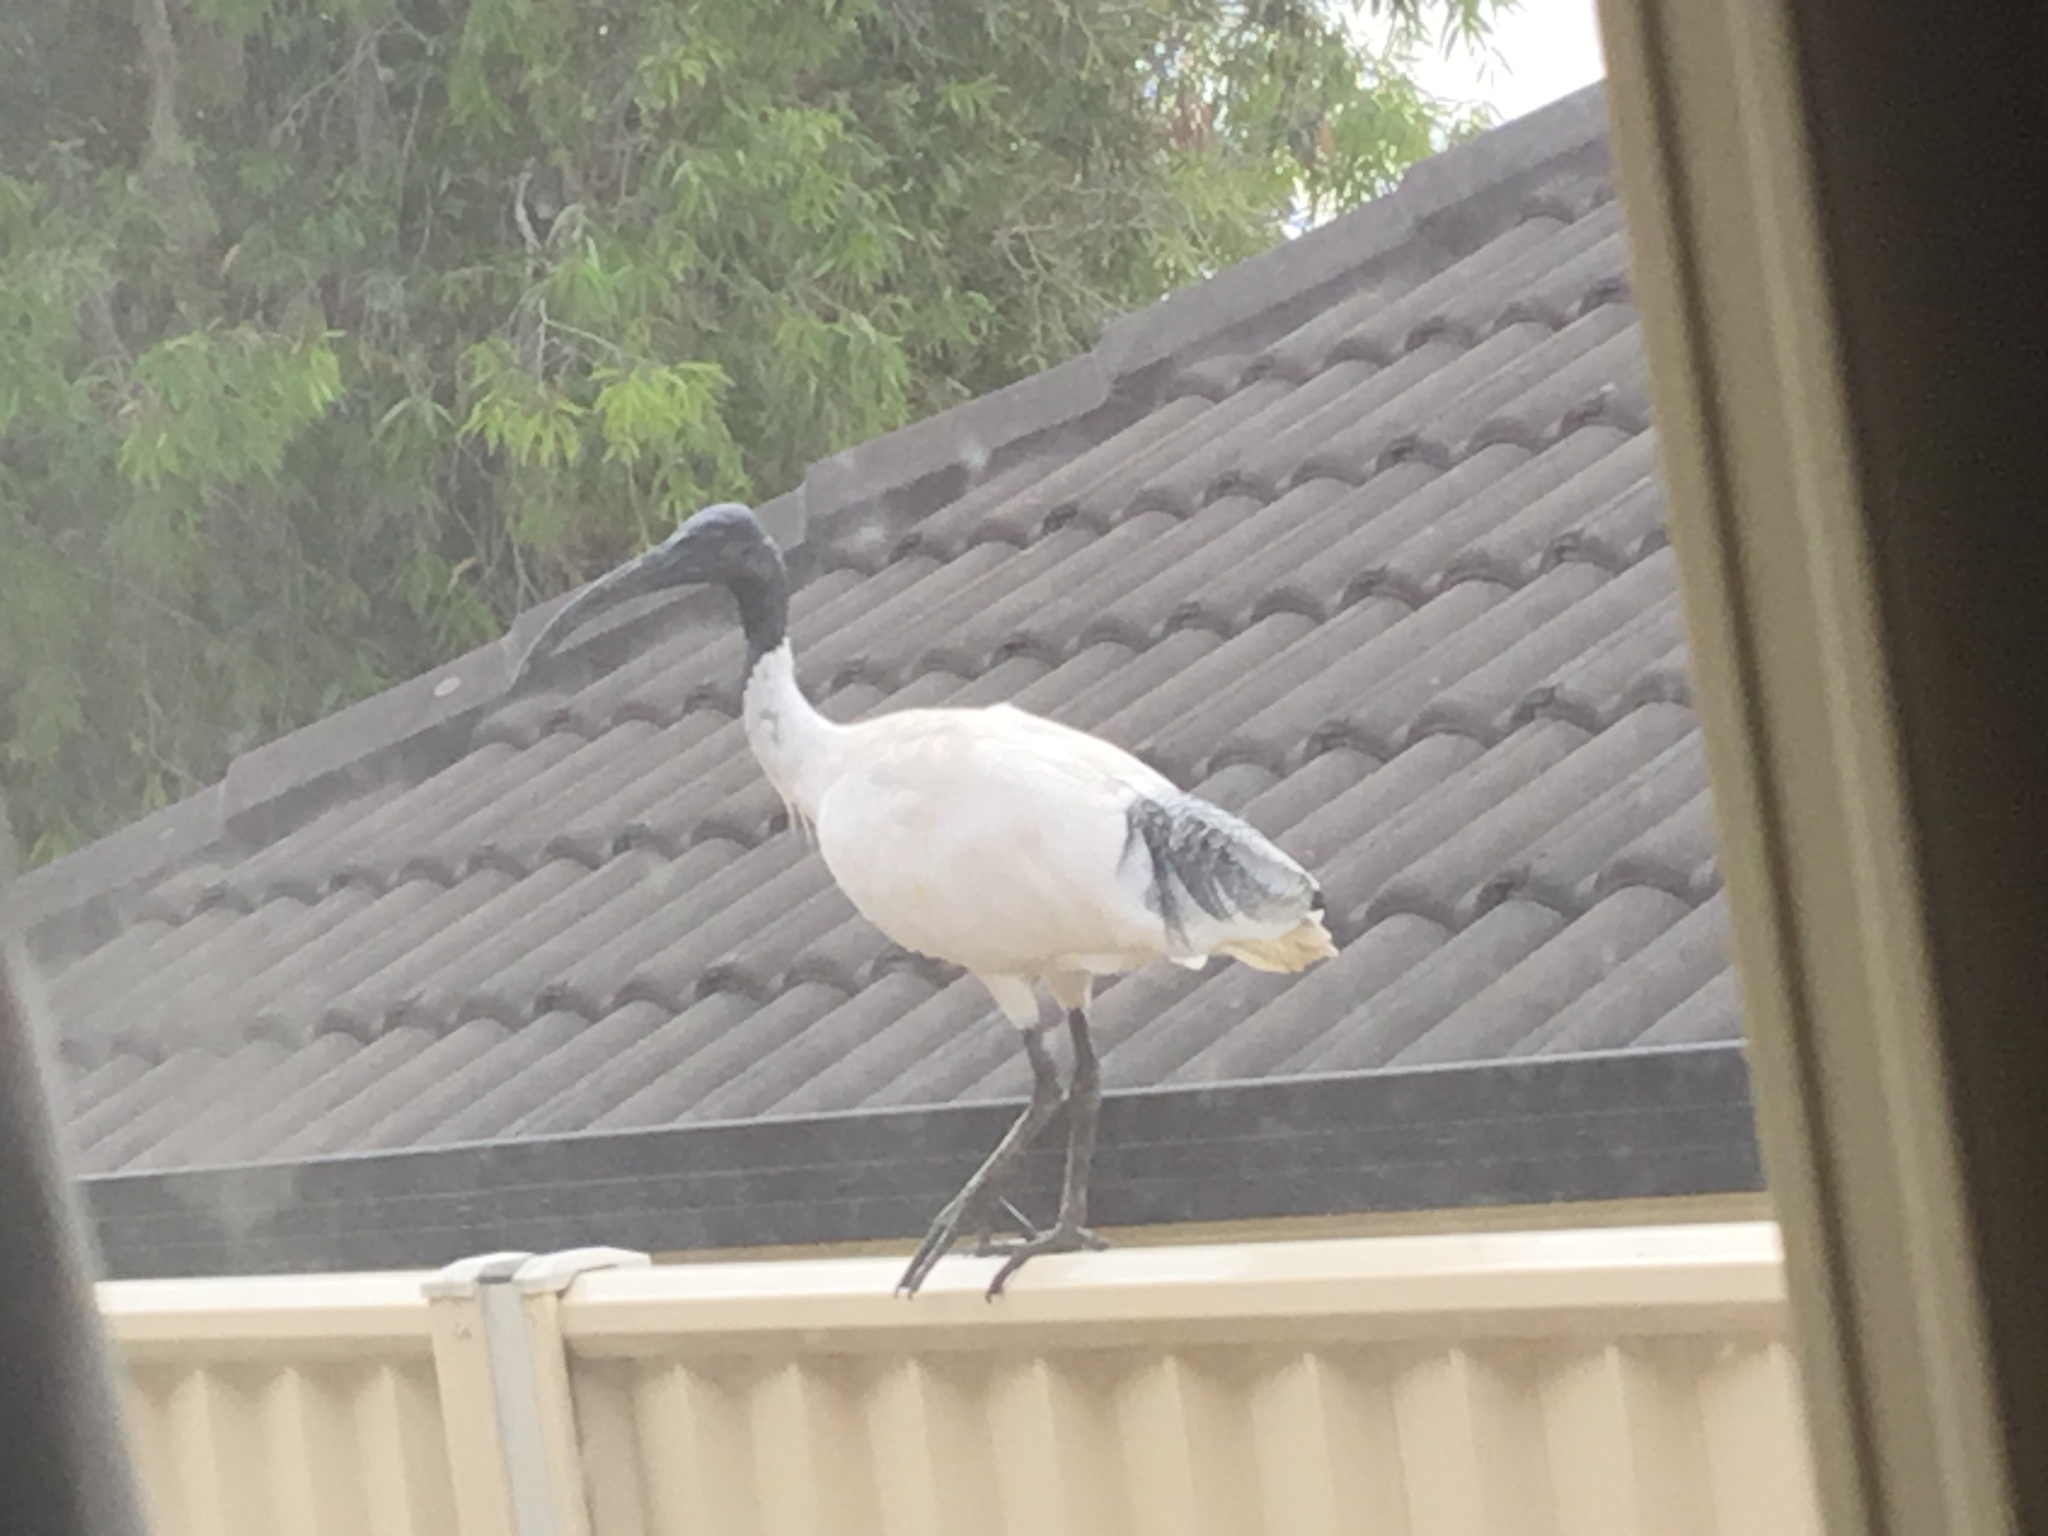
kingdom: Animalia
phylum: Chordata
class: Aves
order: Pelecaniformes
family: Threskiornithidae
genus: Threskiornis
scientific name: Threskiornis molucca
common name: Australian white ibis
